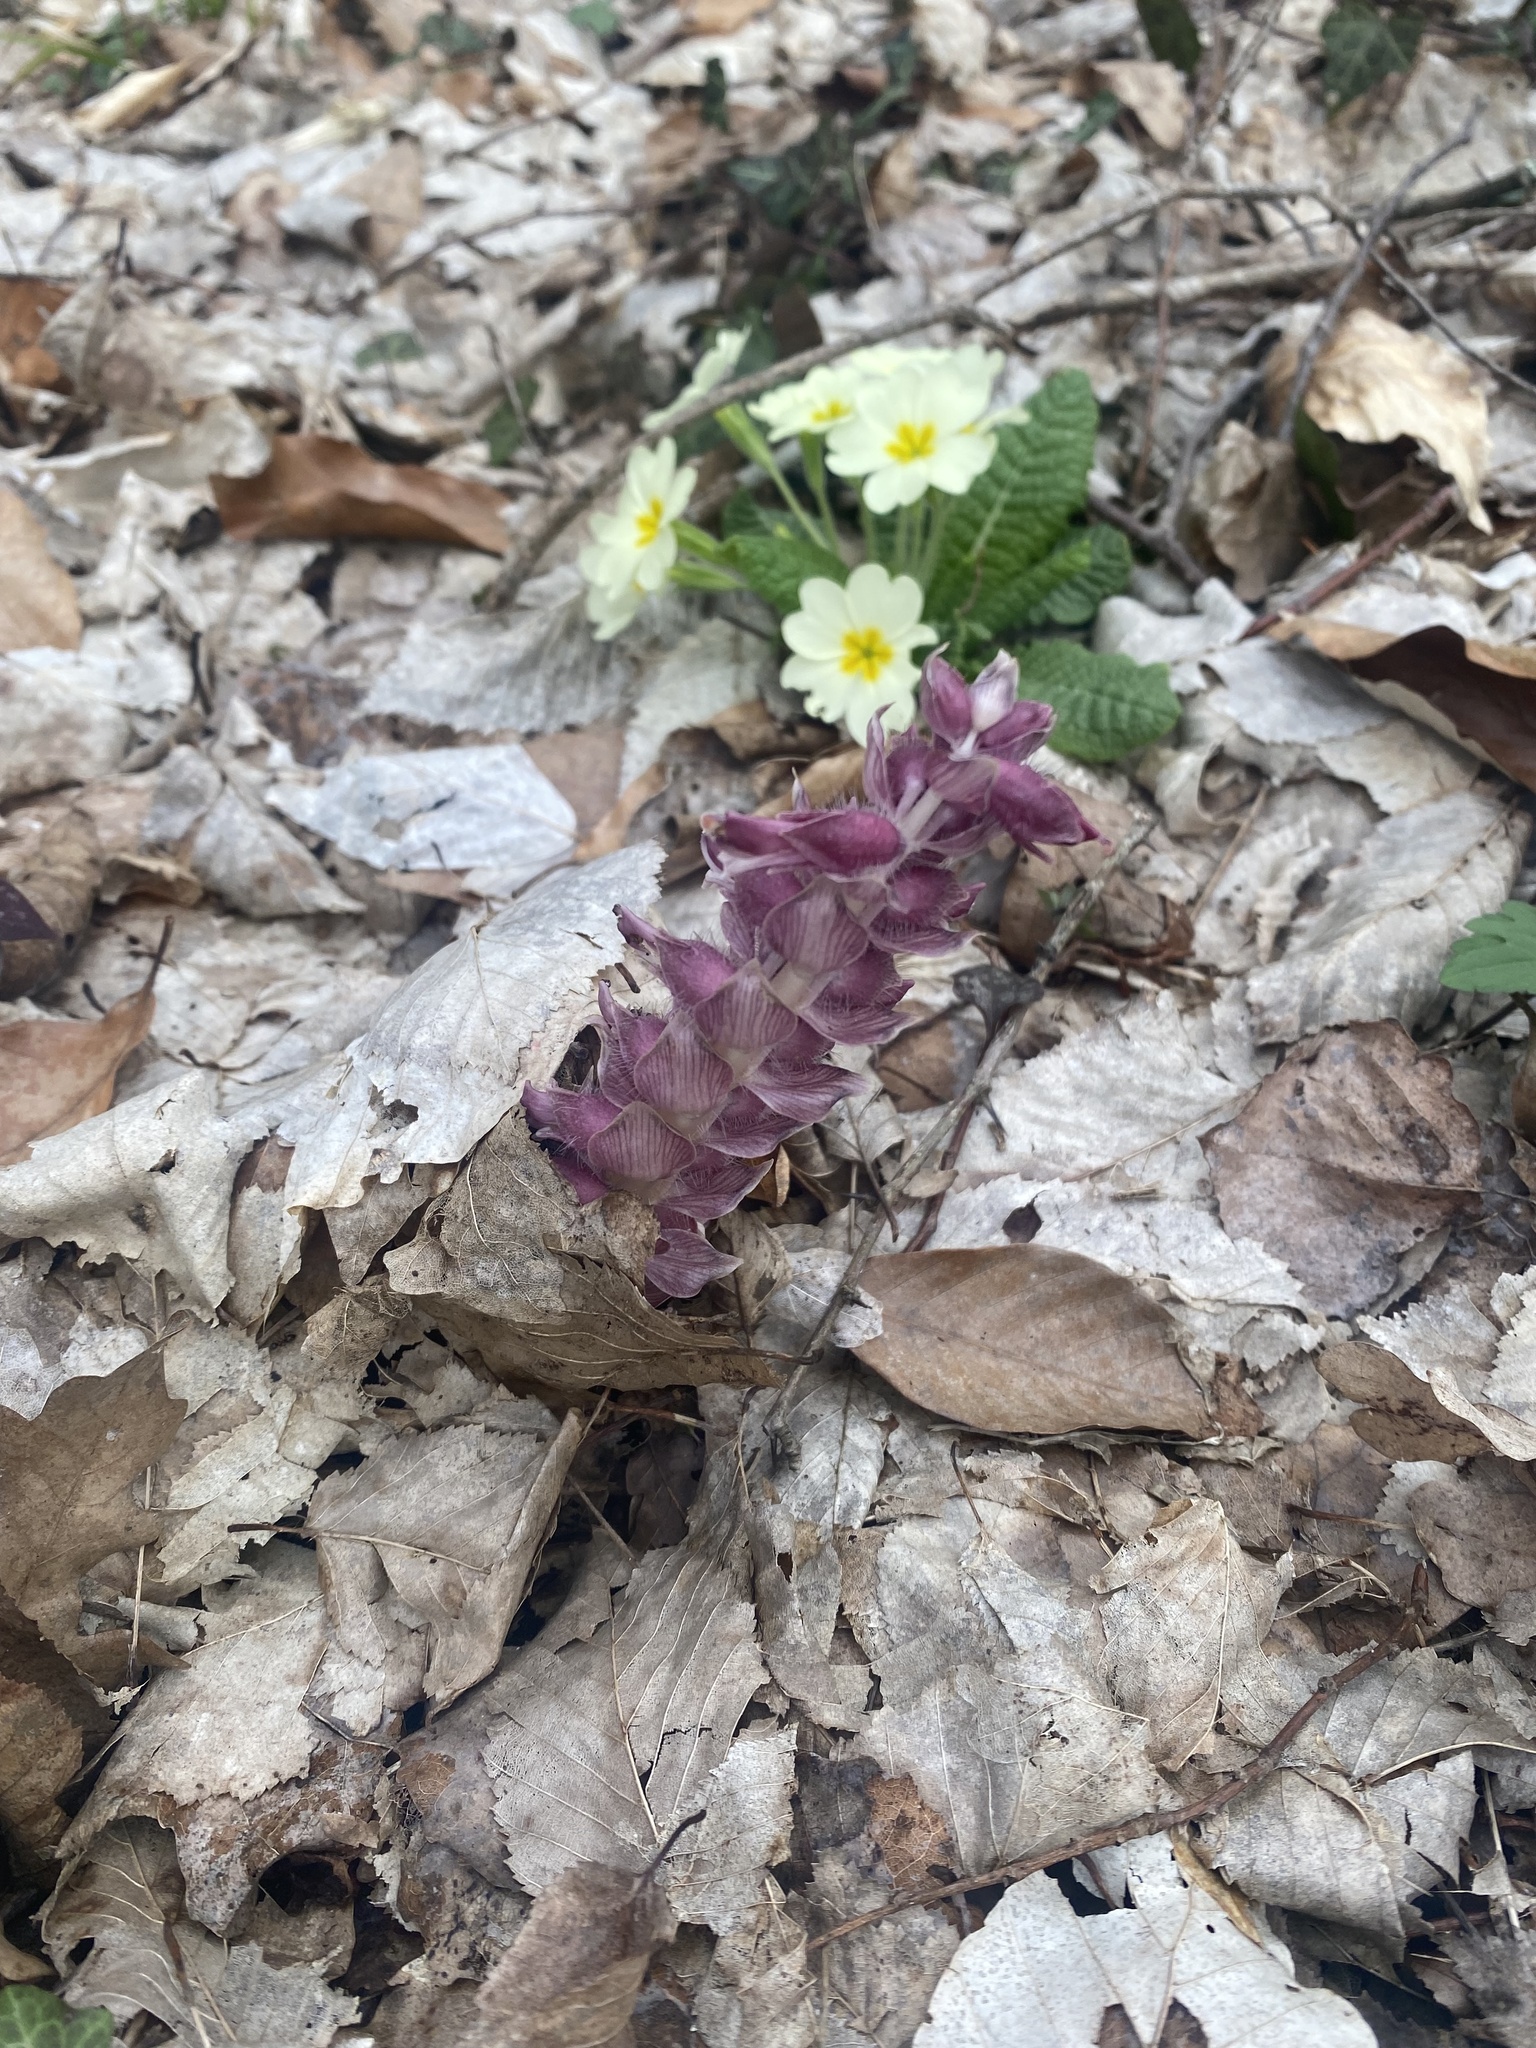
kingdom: Plantae
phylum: Tracheophyta
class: Magnoliopsida
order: Lamiales
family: Orobanchaceae
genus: Lathraea
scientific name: Lathraea squamaria
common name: Toothwort
